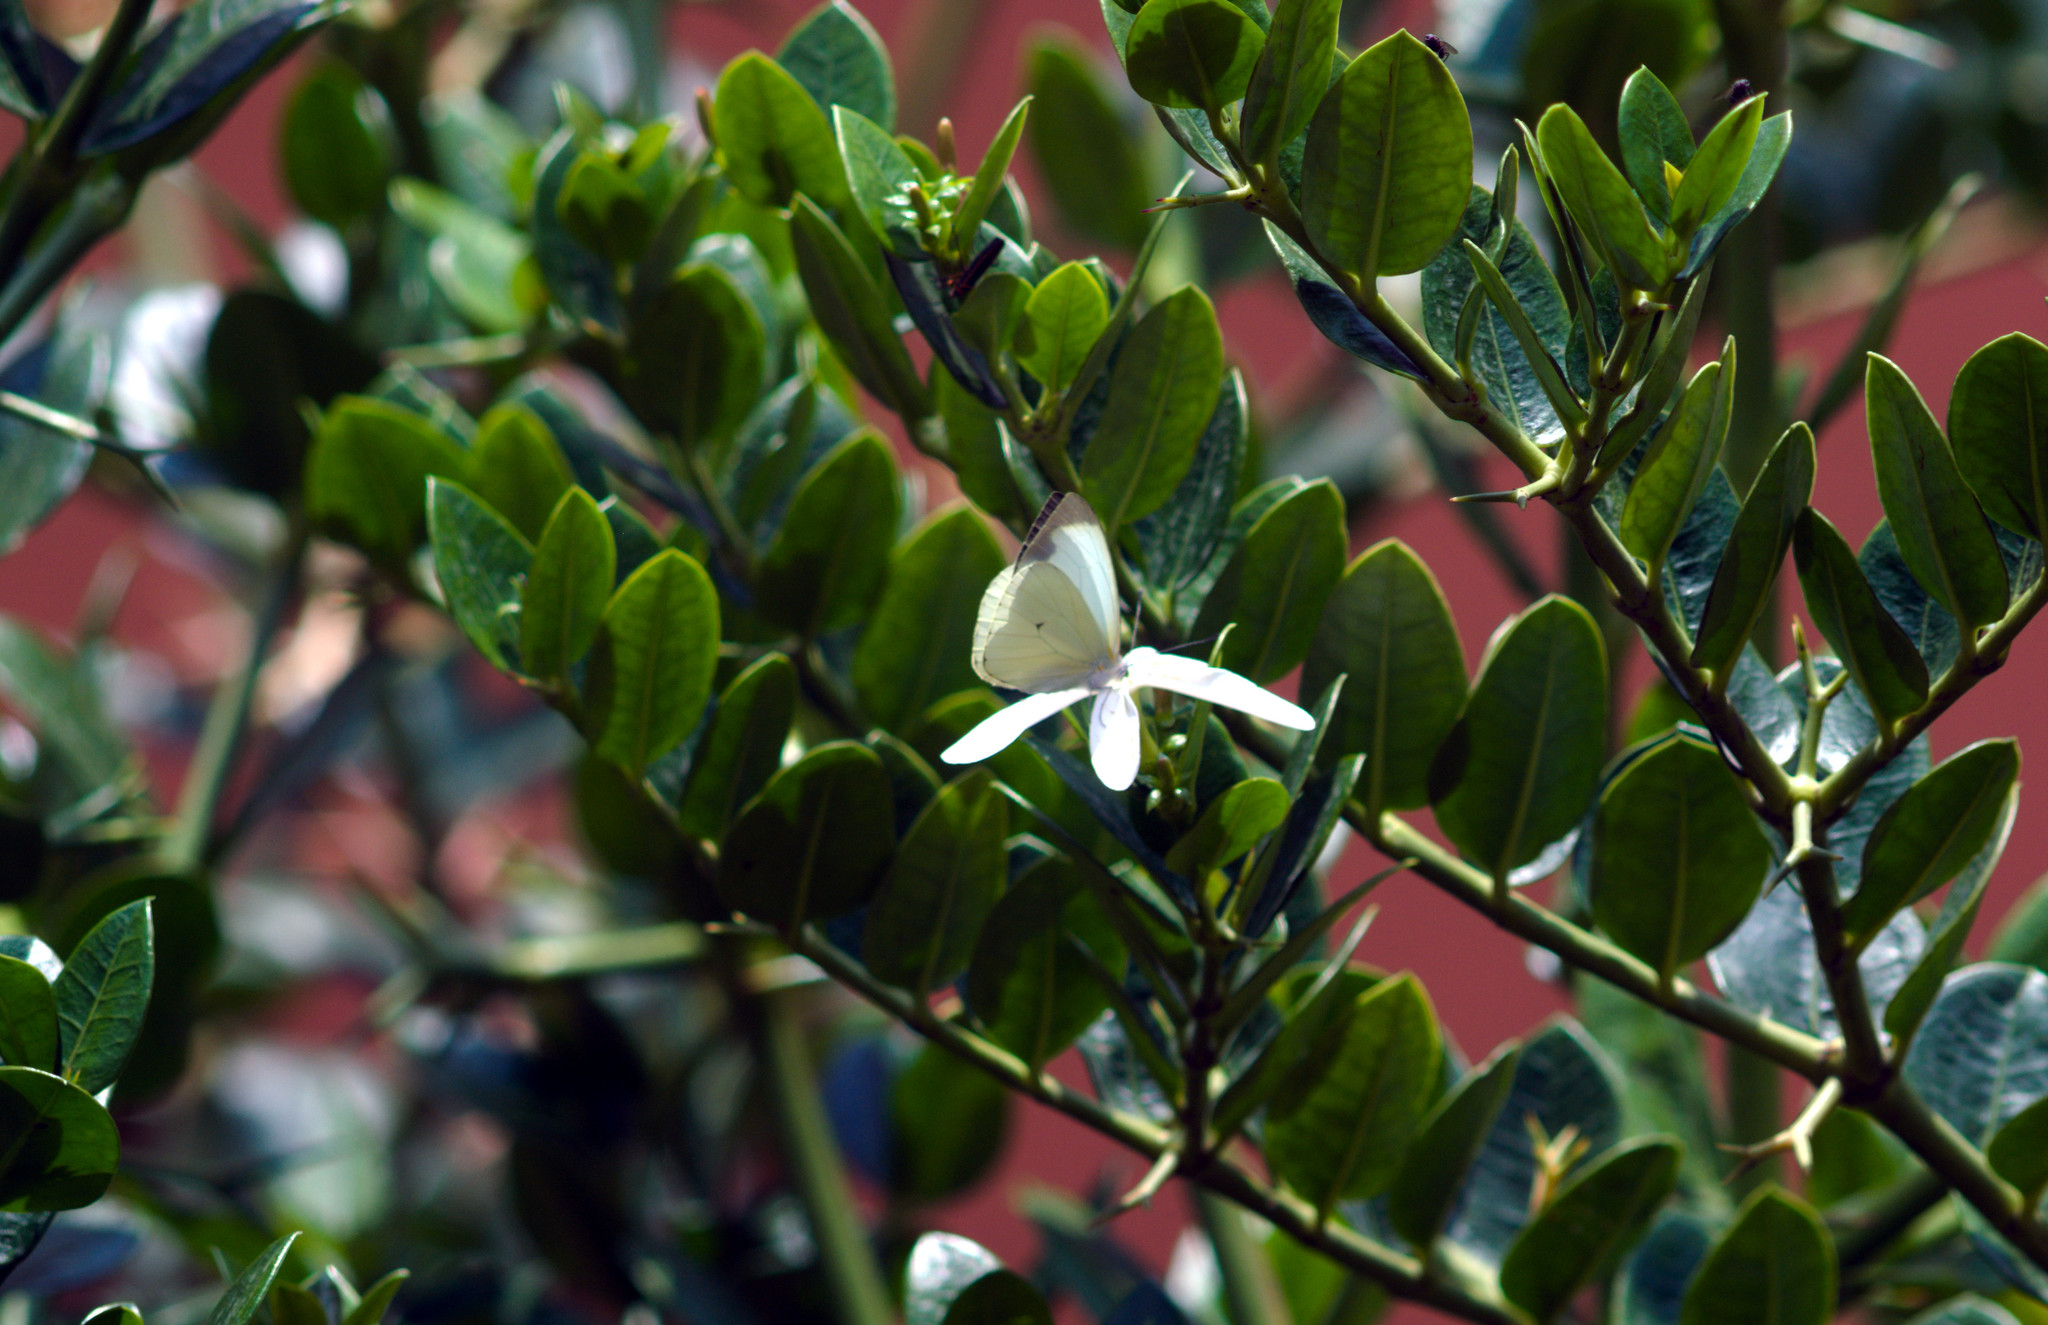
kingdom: Animalia
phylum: Arthropoda
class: Insecta
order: Lepidoptera
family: Pieridae
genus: Leptophobia
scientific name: Leptophobia aripa
